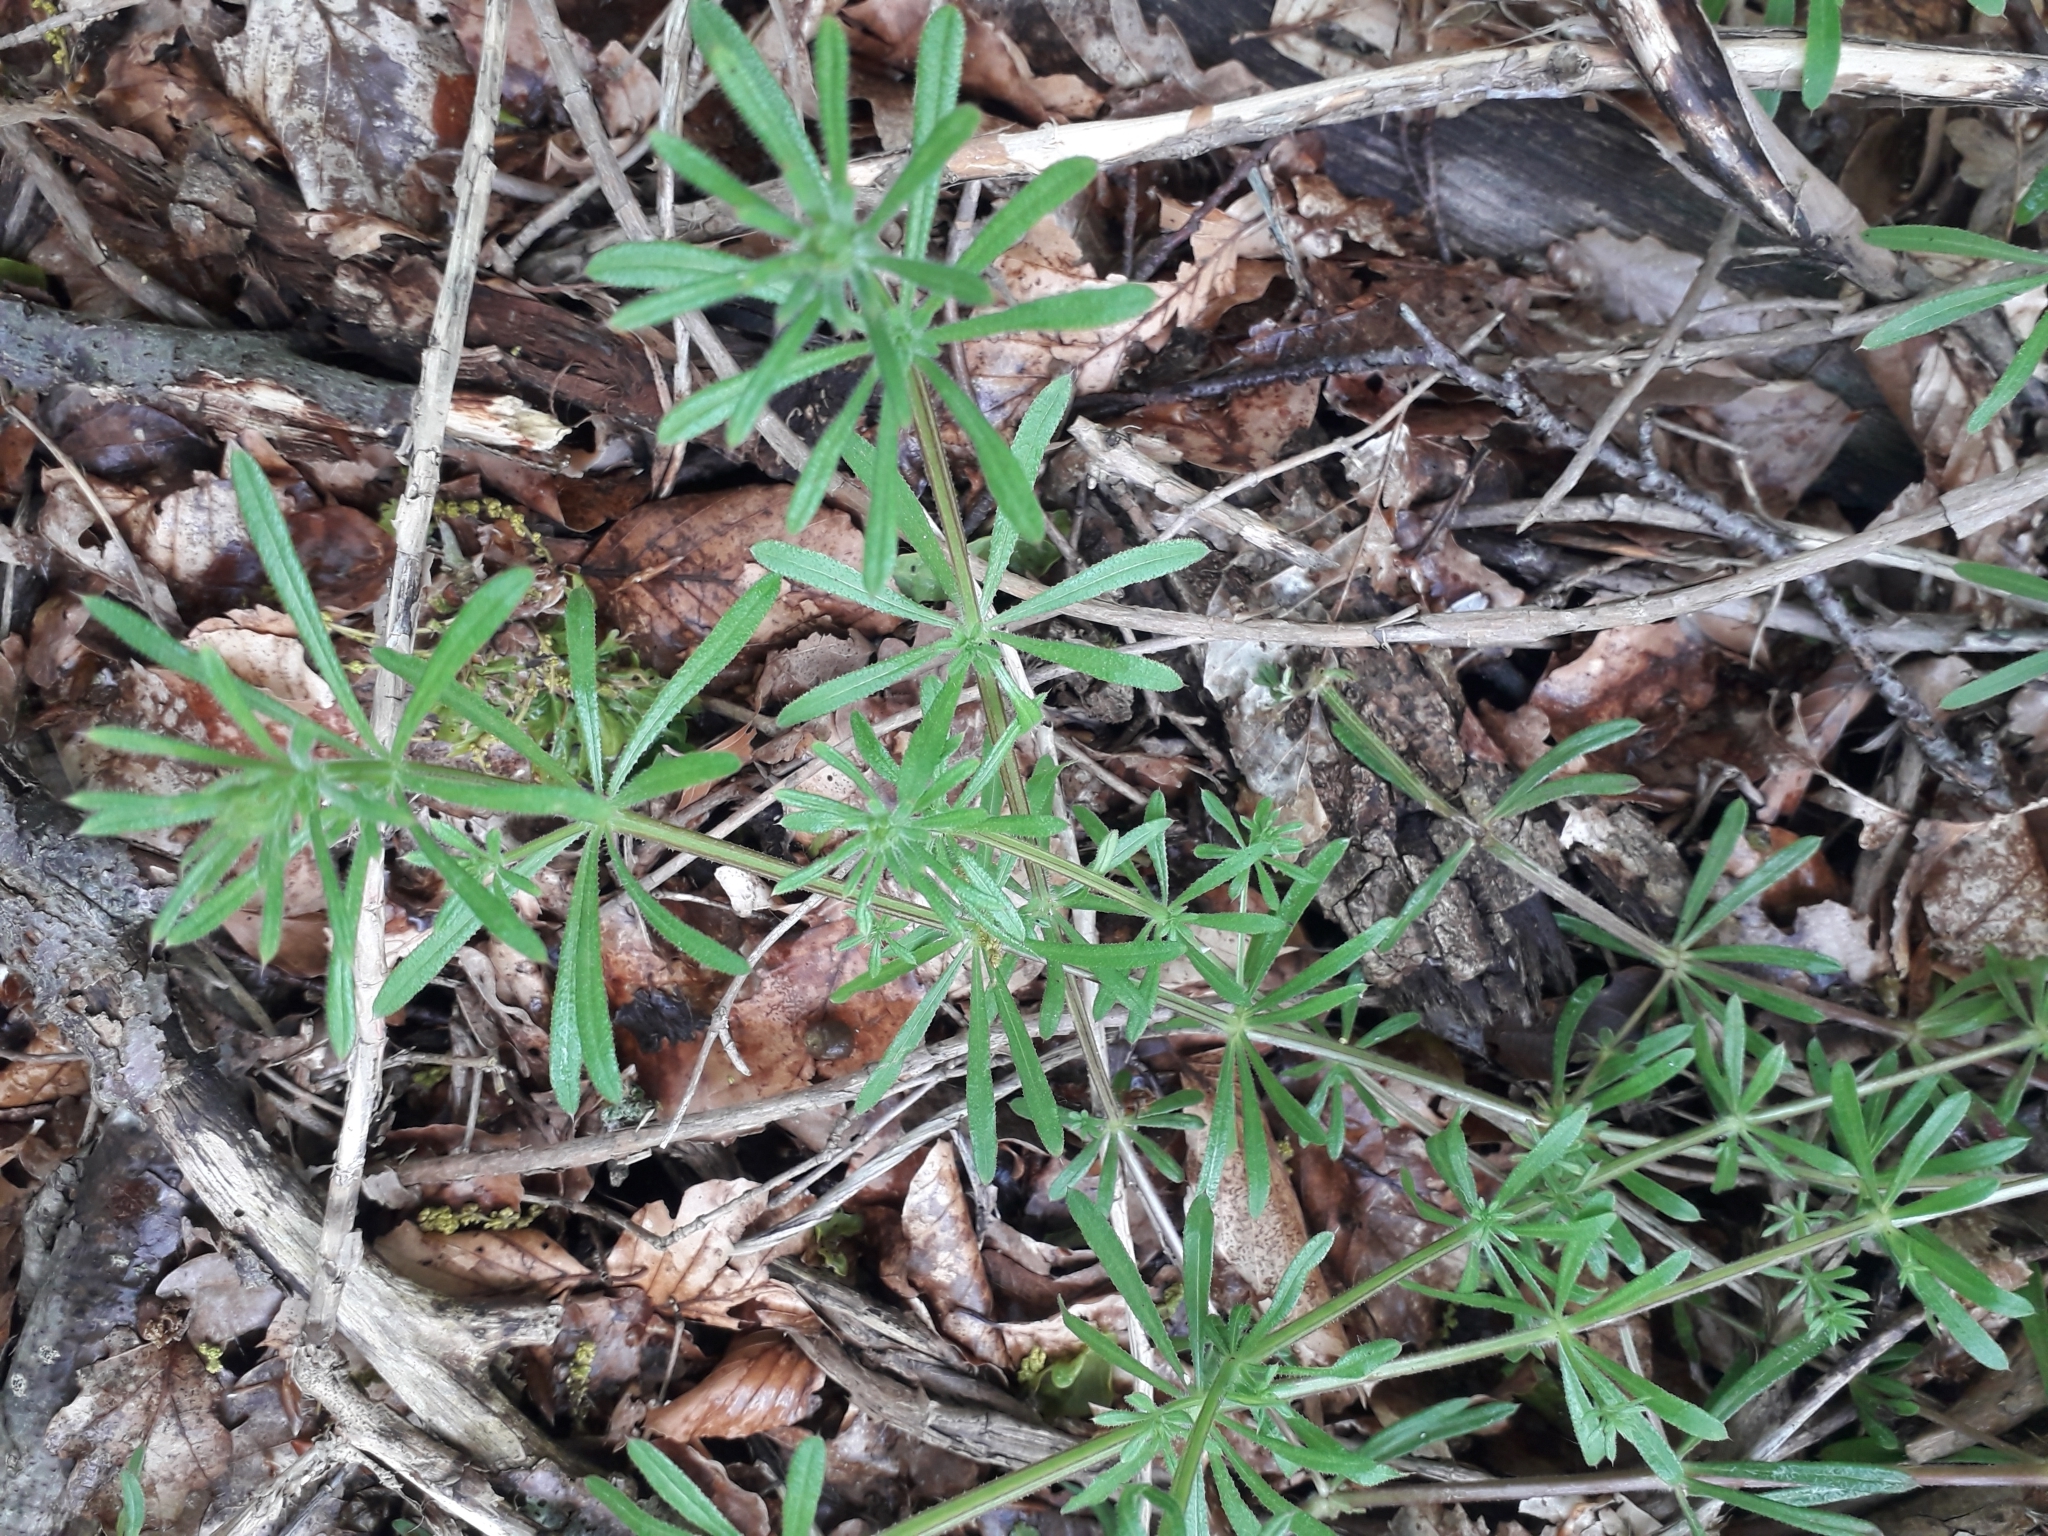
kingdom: Plantae
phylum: Tracheophyta
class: Magnoliopsida
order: Gentianales
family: Rubiaceae
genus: Galium
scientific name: Galium aparine
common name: Cleavers
